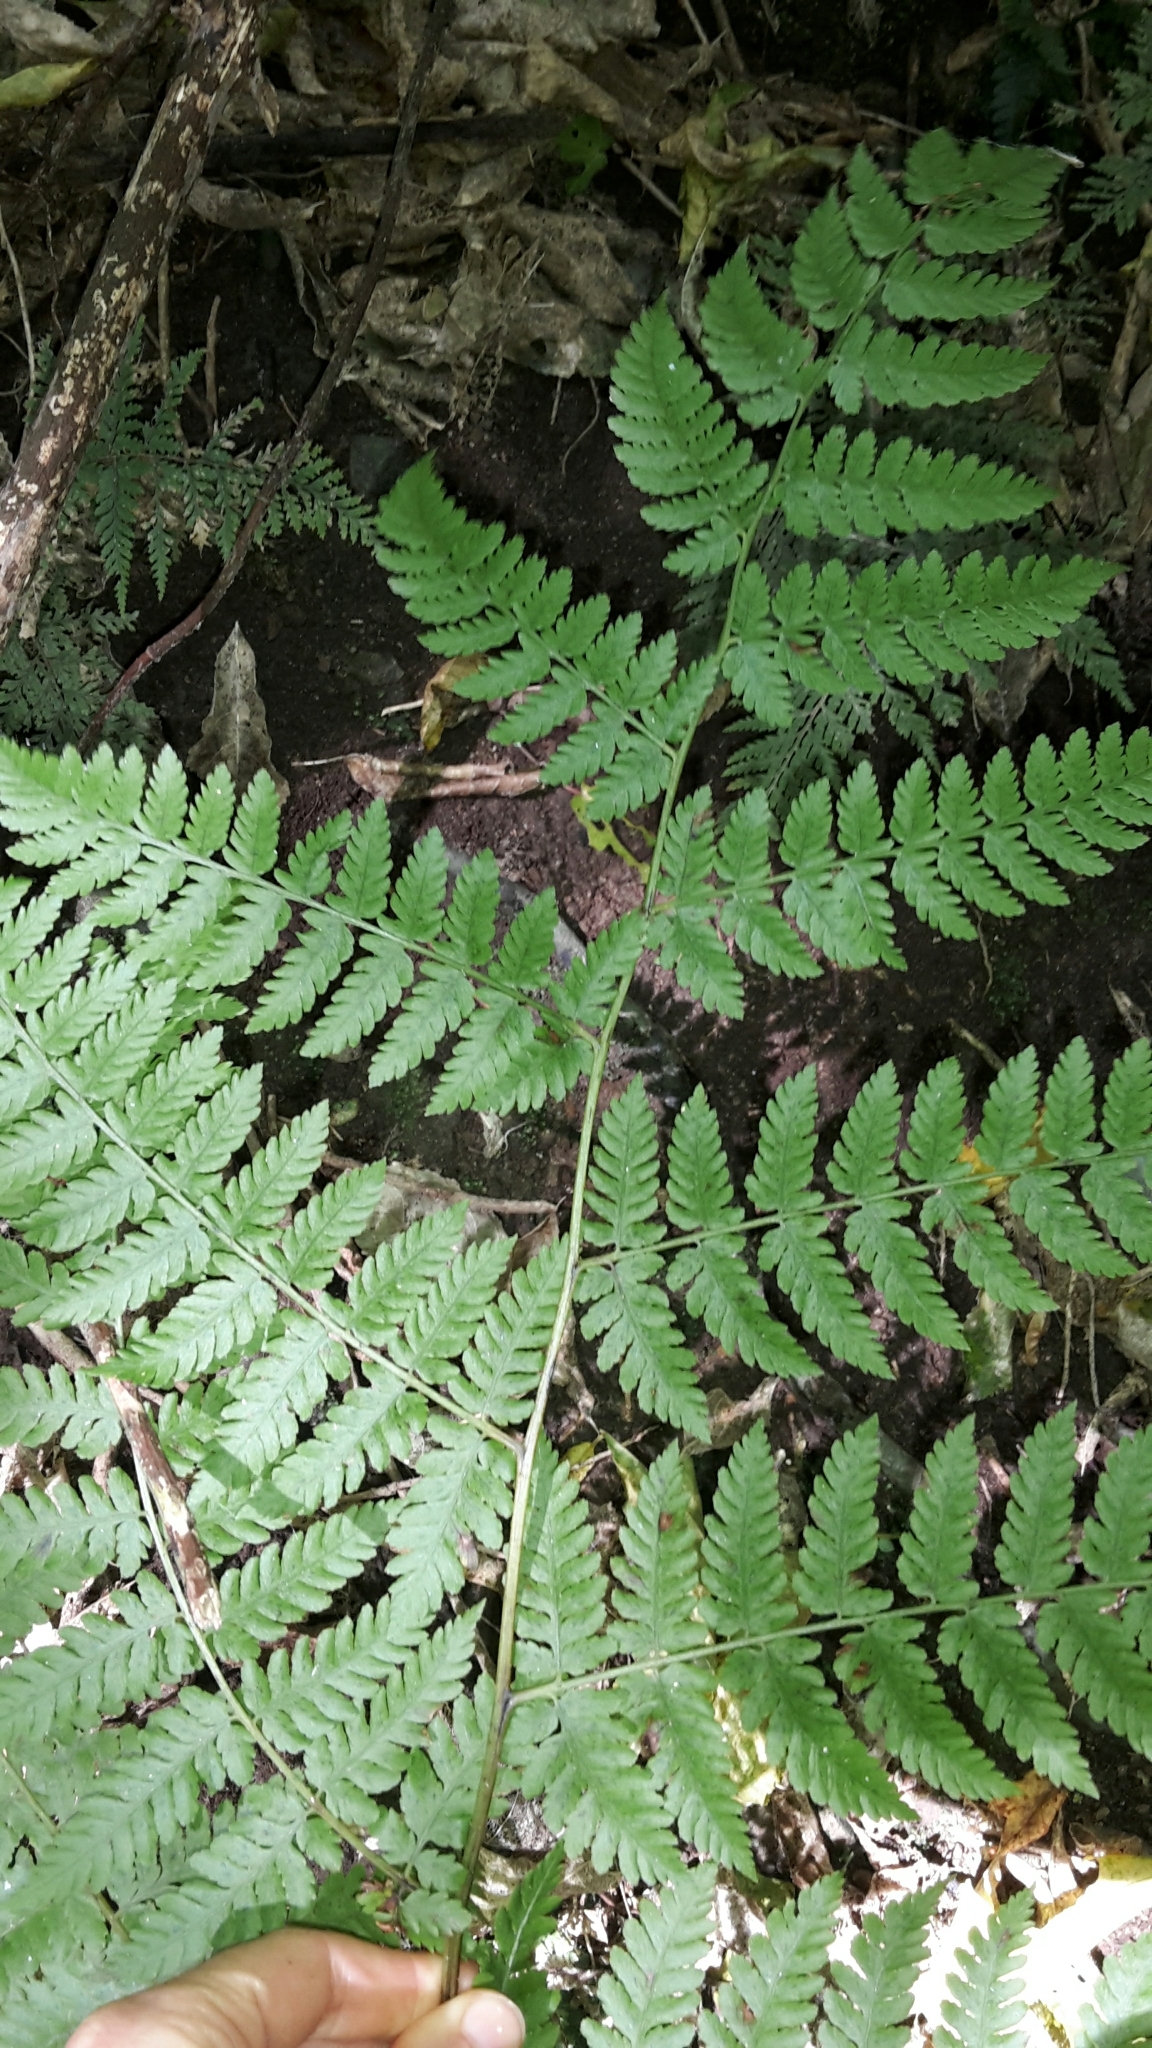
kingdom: Plantae
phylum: Tracheophyta
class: Polypodiopsida
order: Polypodiales
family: Athyriaceae
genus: Diplazium
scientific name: Diplazium australe
